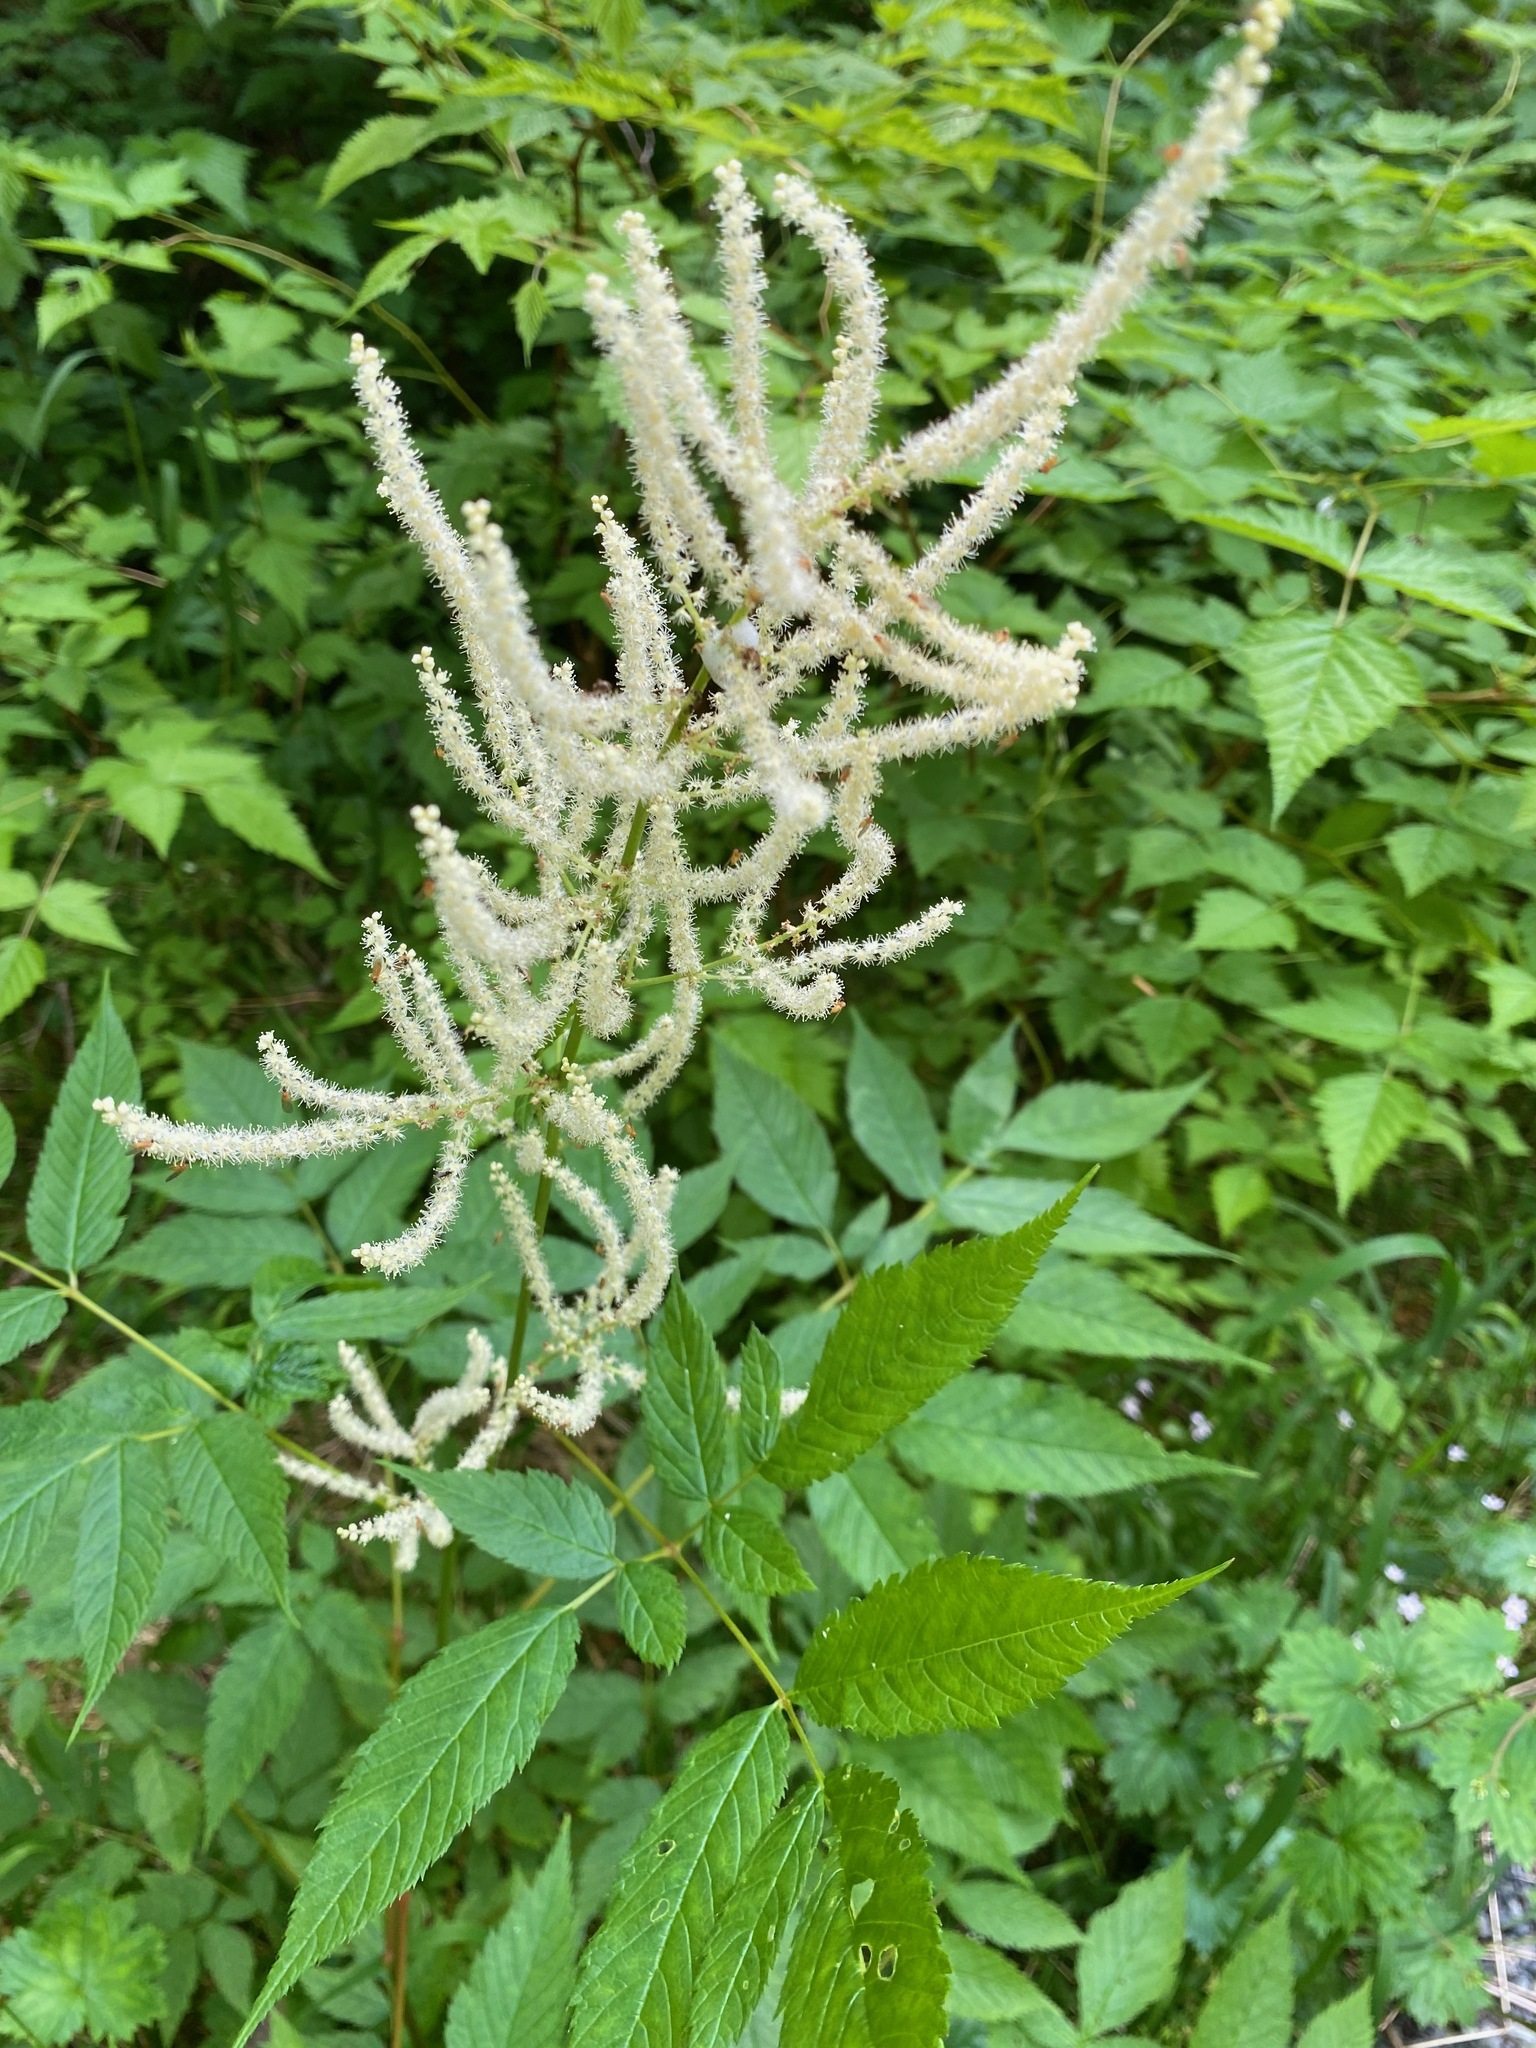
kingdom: Plantae
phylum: Tracheophyta
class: Magnoliopsida
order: Rosales
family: Rosaceae
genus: Aruncus
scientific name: Aruncus dioicus
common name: Buck's-beard
